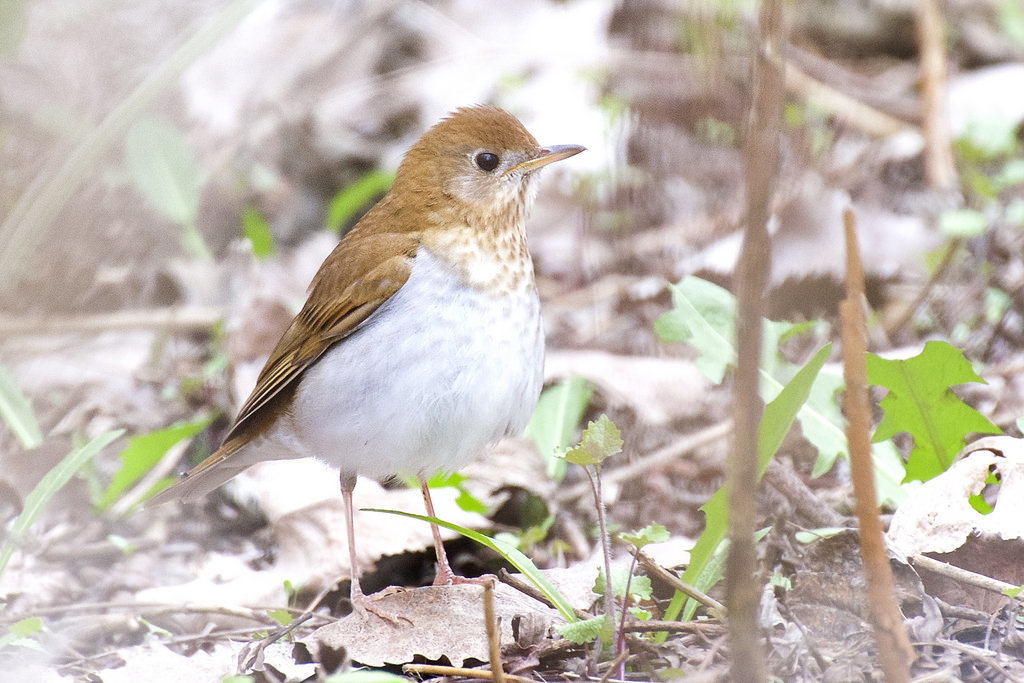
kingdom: Animalia
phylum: Chordata
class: Aves
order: Passeriformes
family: Turdidae
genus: Catharus
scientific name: Catharus fuscescens
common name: Veery
